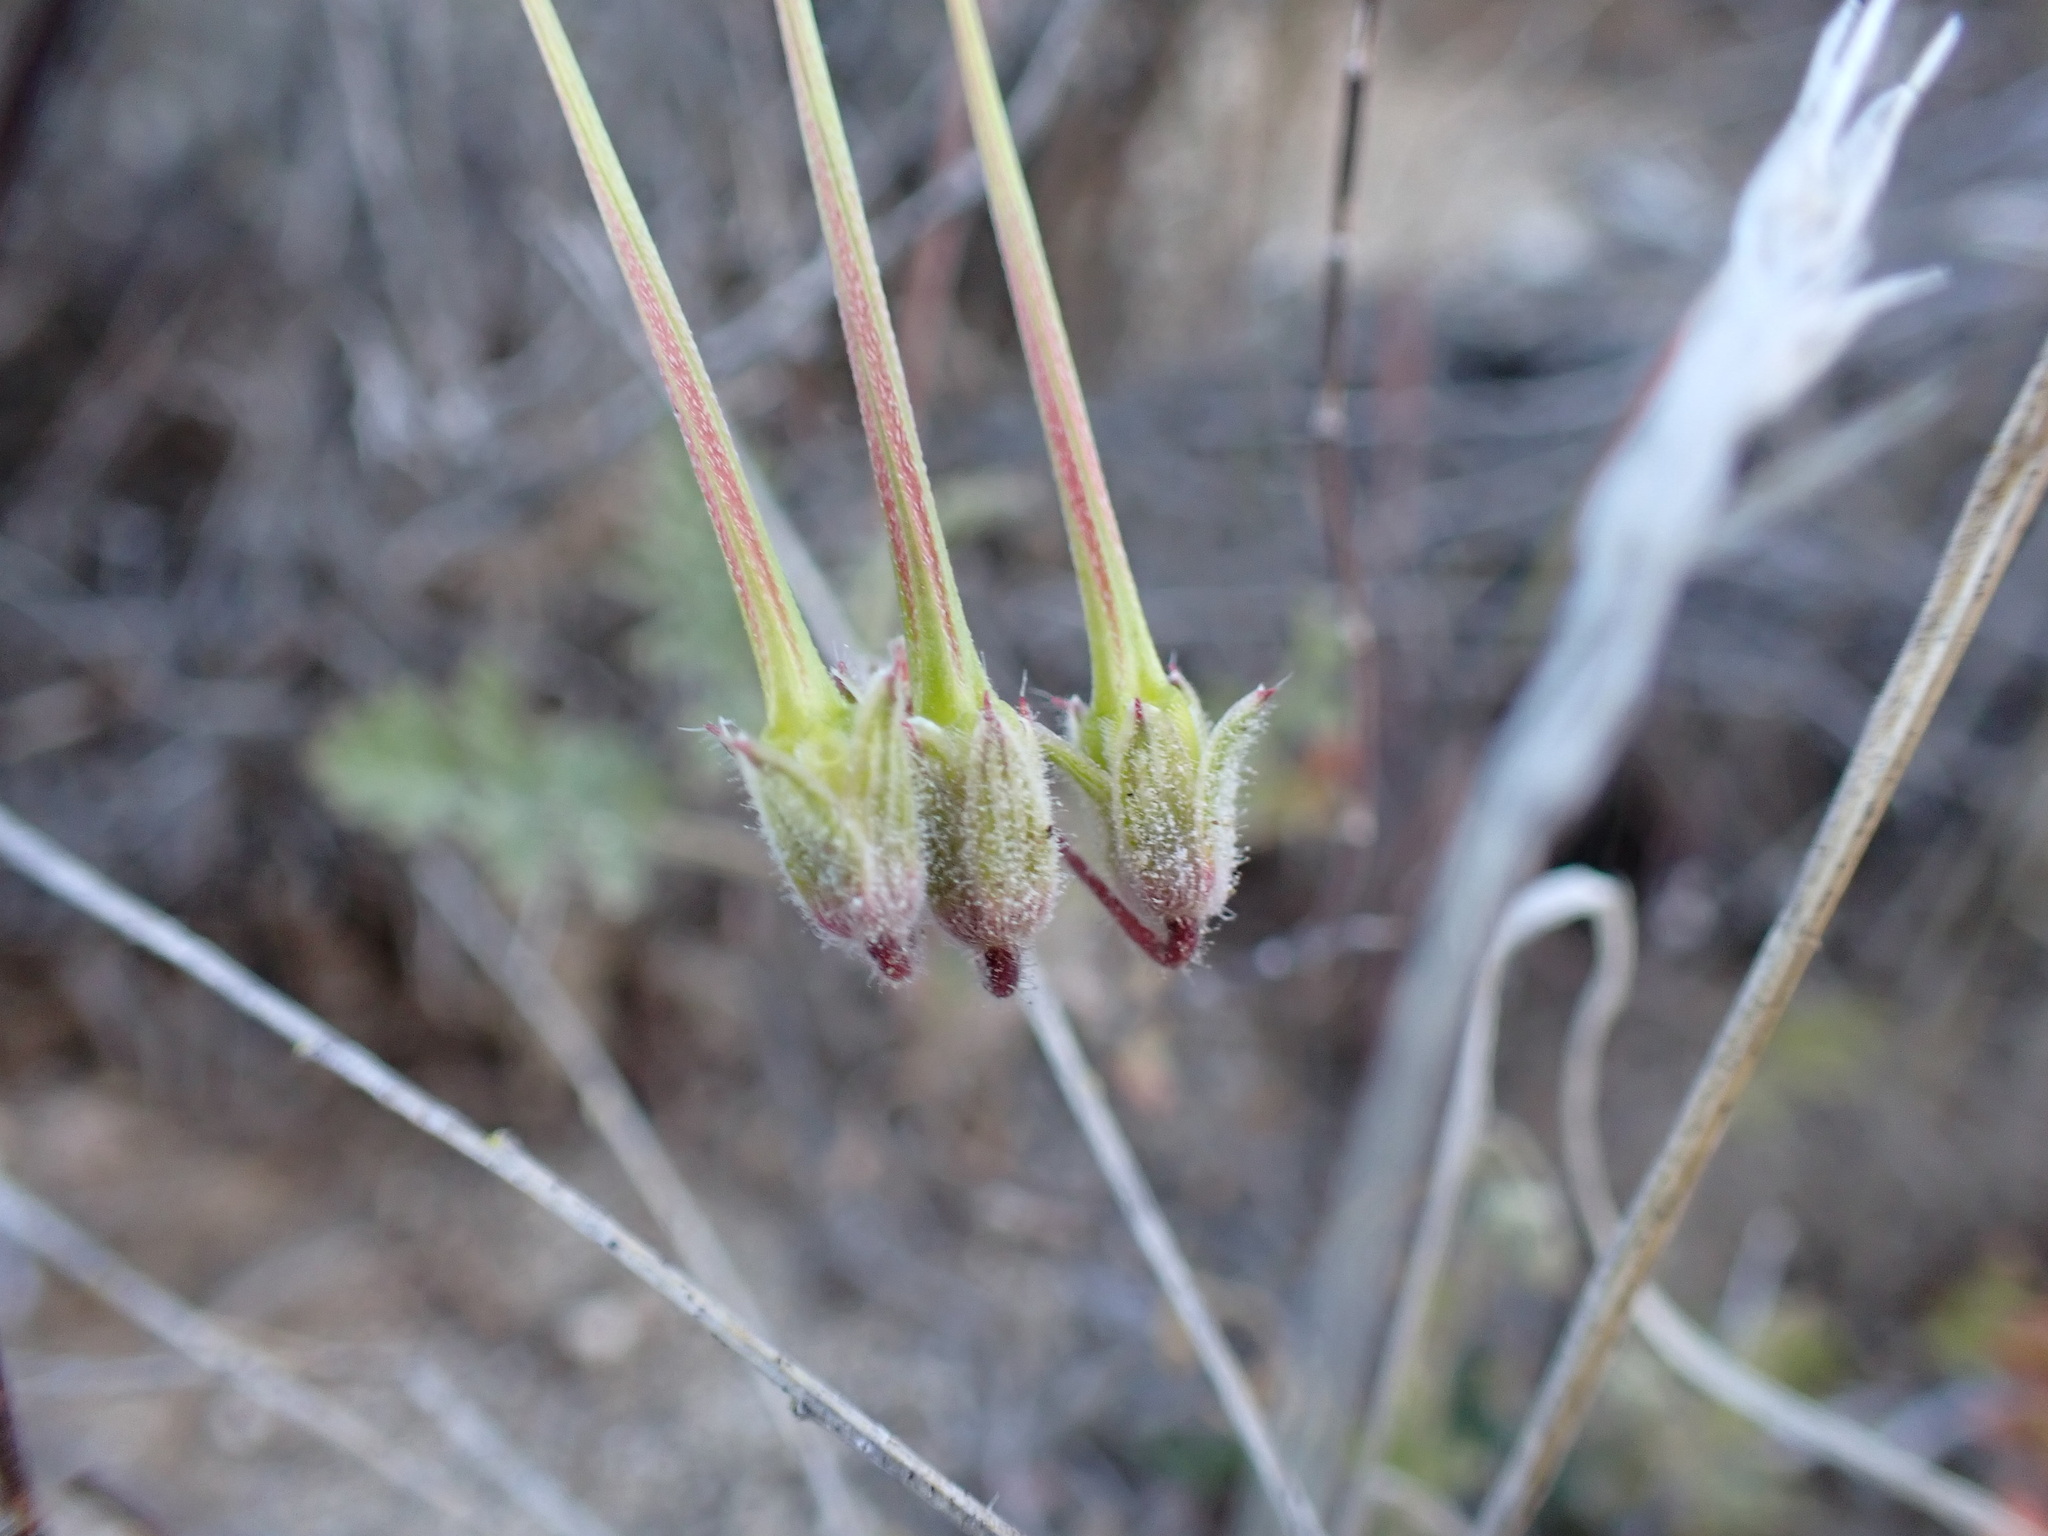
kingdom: Plantae
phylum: Tracheophyta
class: Magnoliopsida
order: Geraniales
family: Geraniaceae
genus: Erodium
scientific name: Erodium cicutarium
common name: Common stork's-bill
